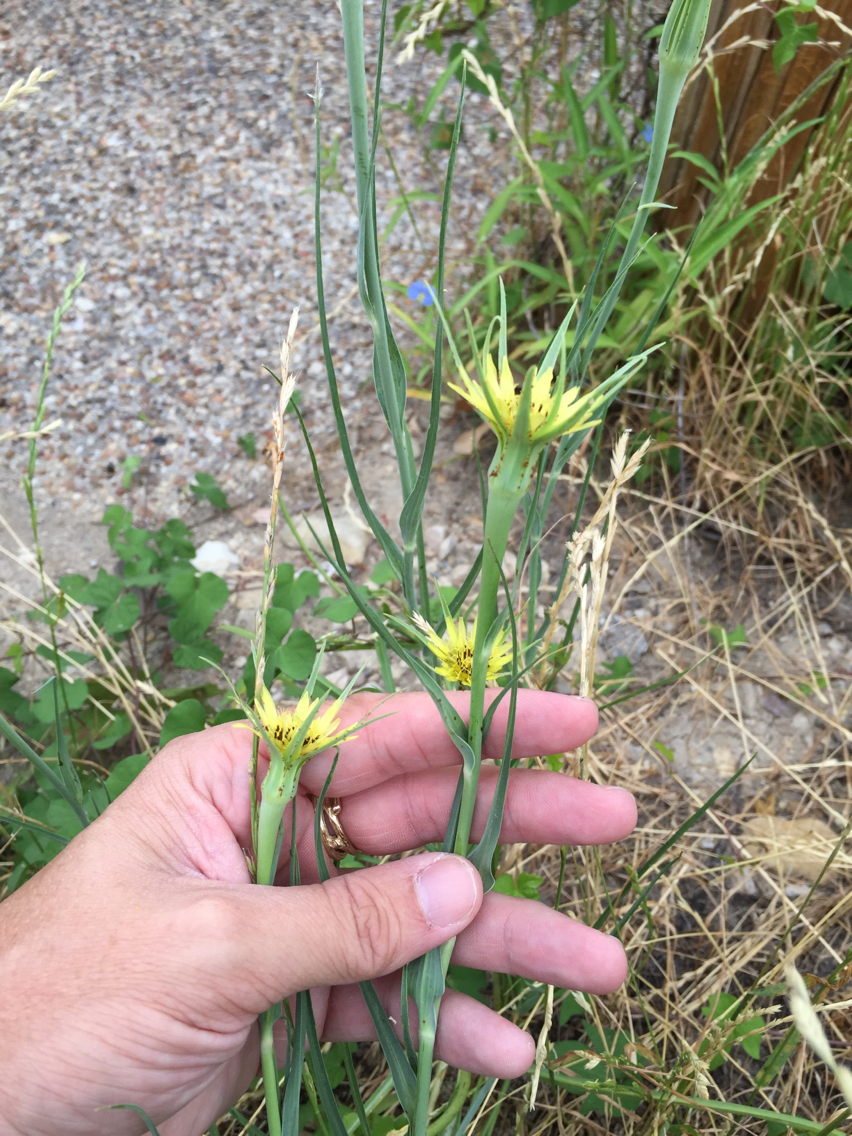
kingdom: Plantae
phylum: Tracheophyta
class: Magnoliopsida
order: Asterales
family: Asteraceae
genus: Tragopogon
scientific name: Tragopogon dubius
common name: Yellow salsify
